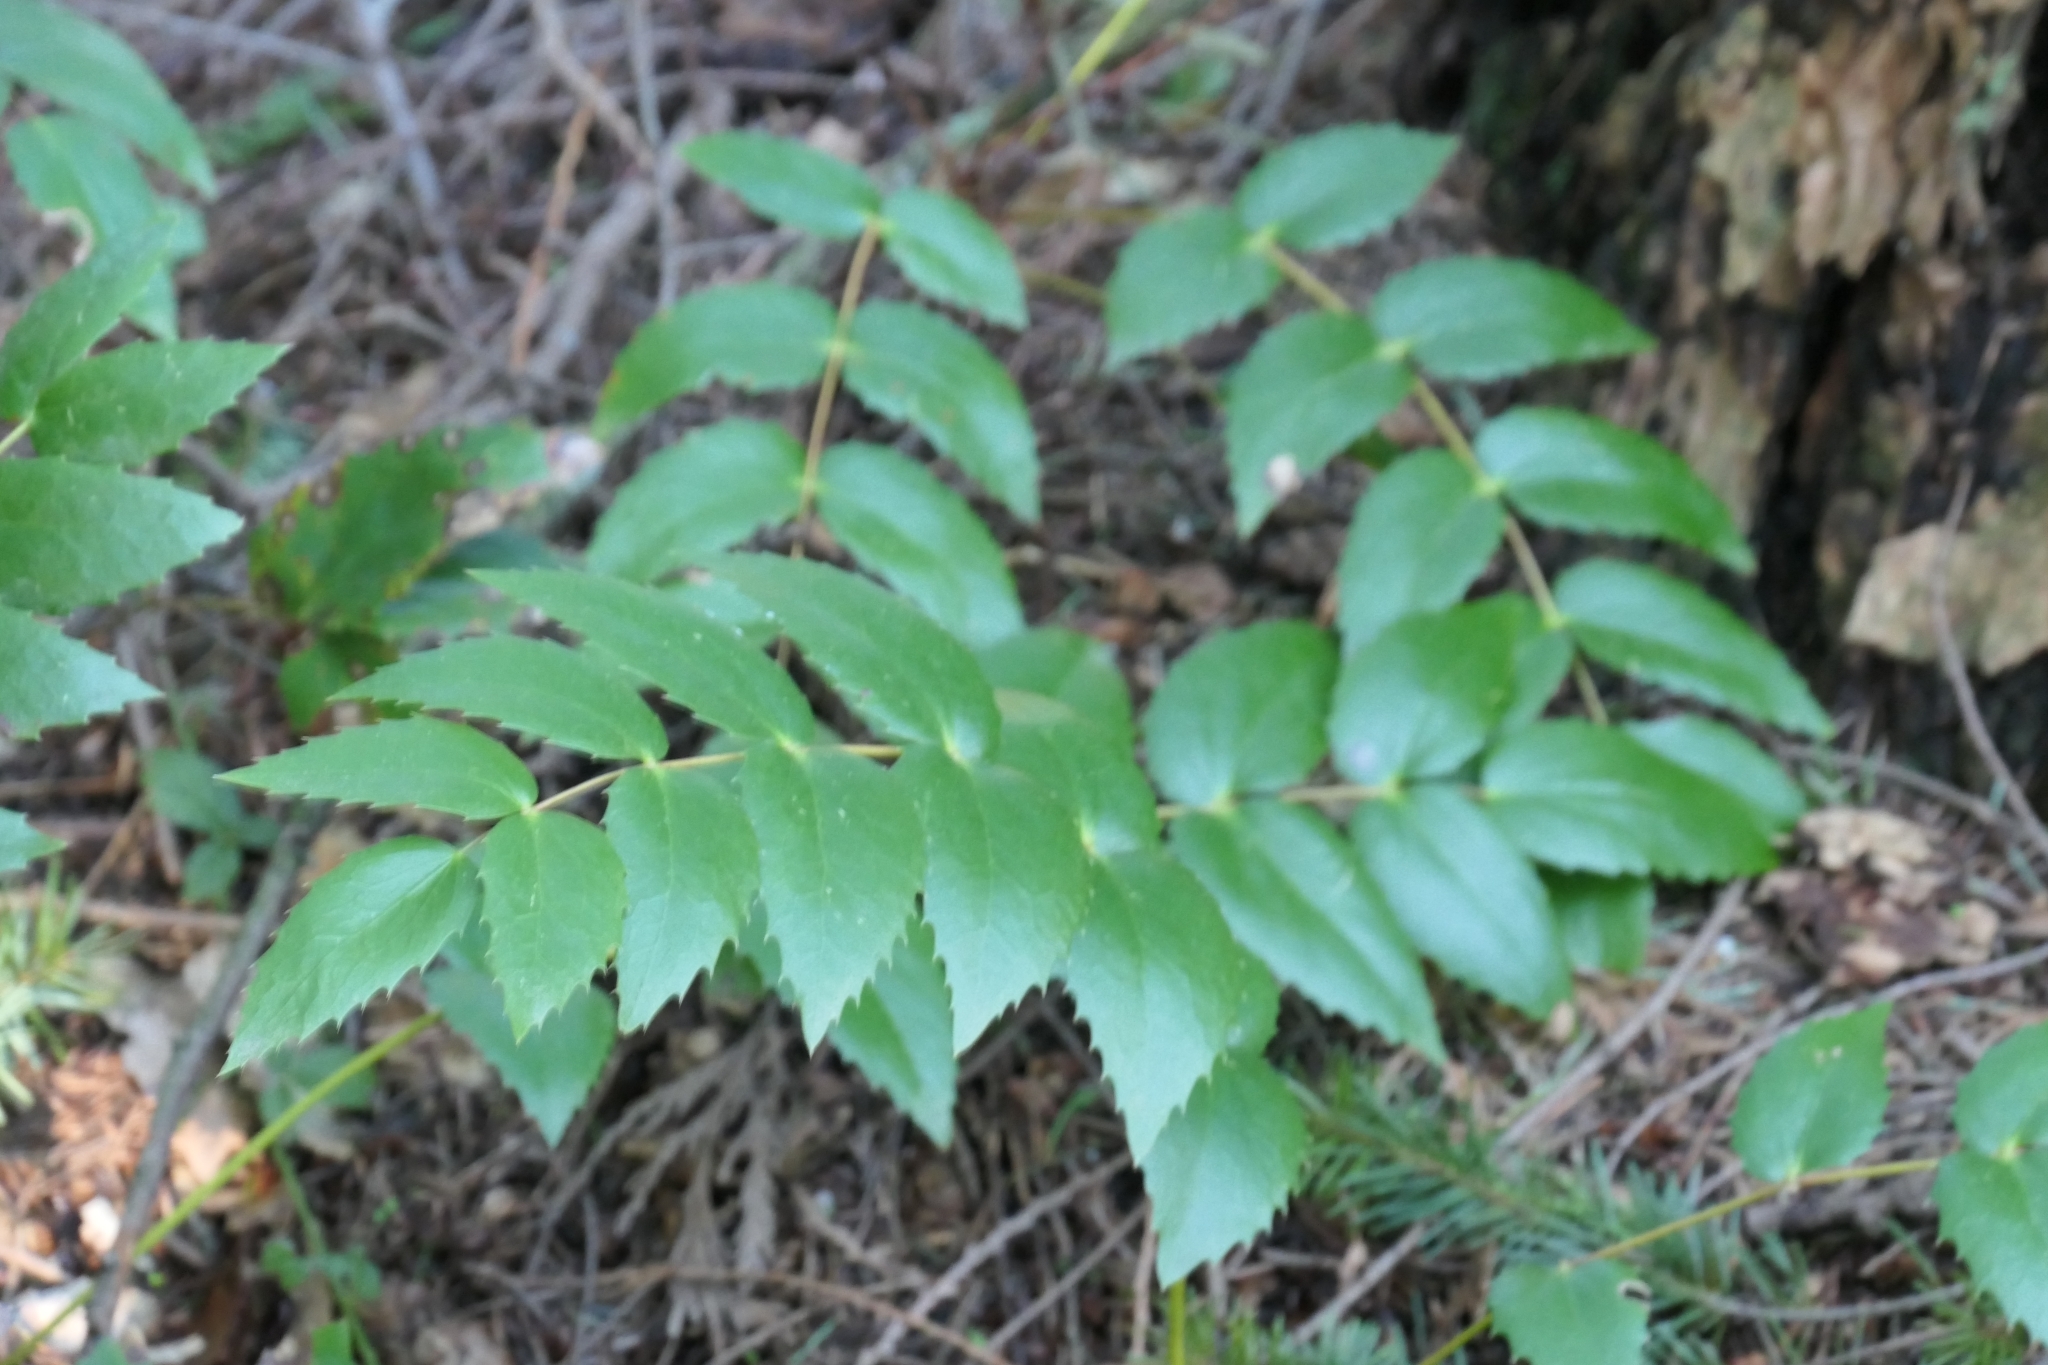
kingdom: Plantae
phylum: Tracheophyta
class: Magnoliopsida
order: Ranunculales
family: Berberidaceae
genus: Mahonia
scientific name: Mahonia nervosa
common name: Cascade oregon-grape
